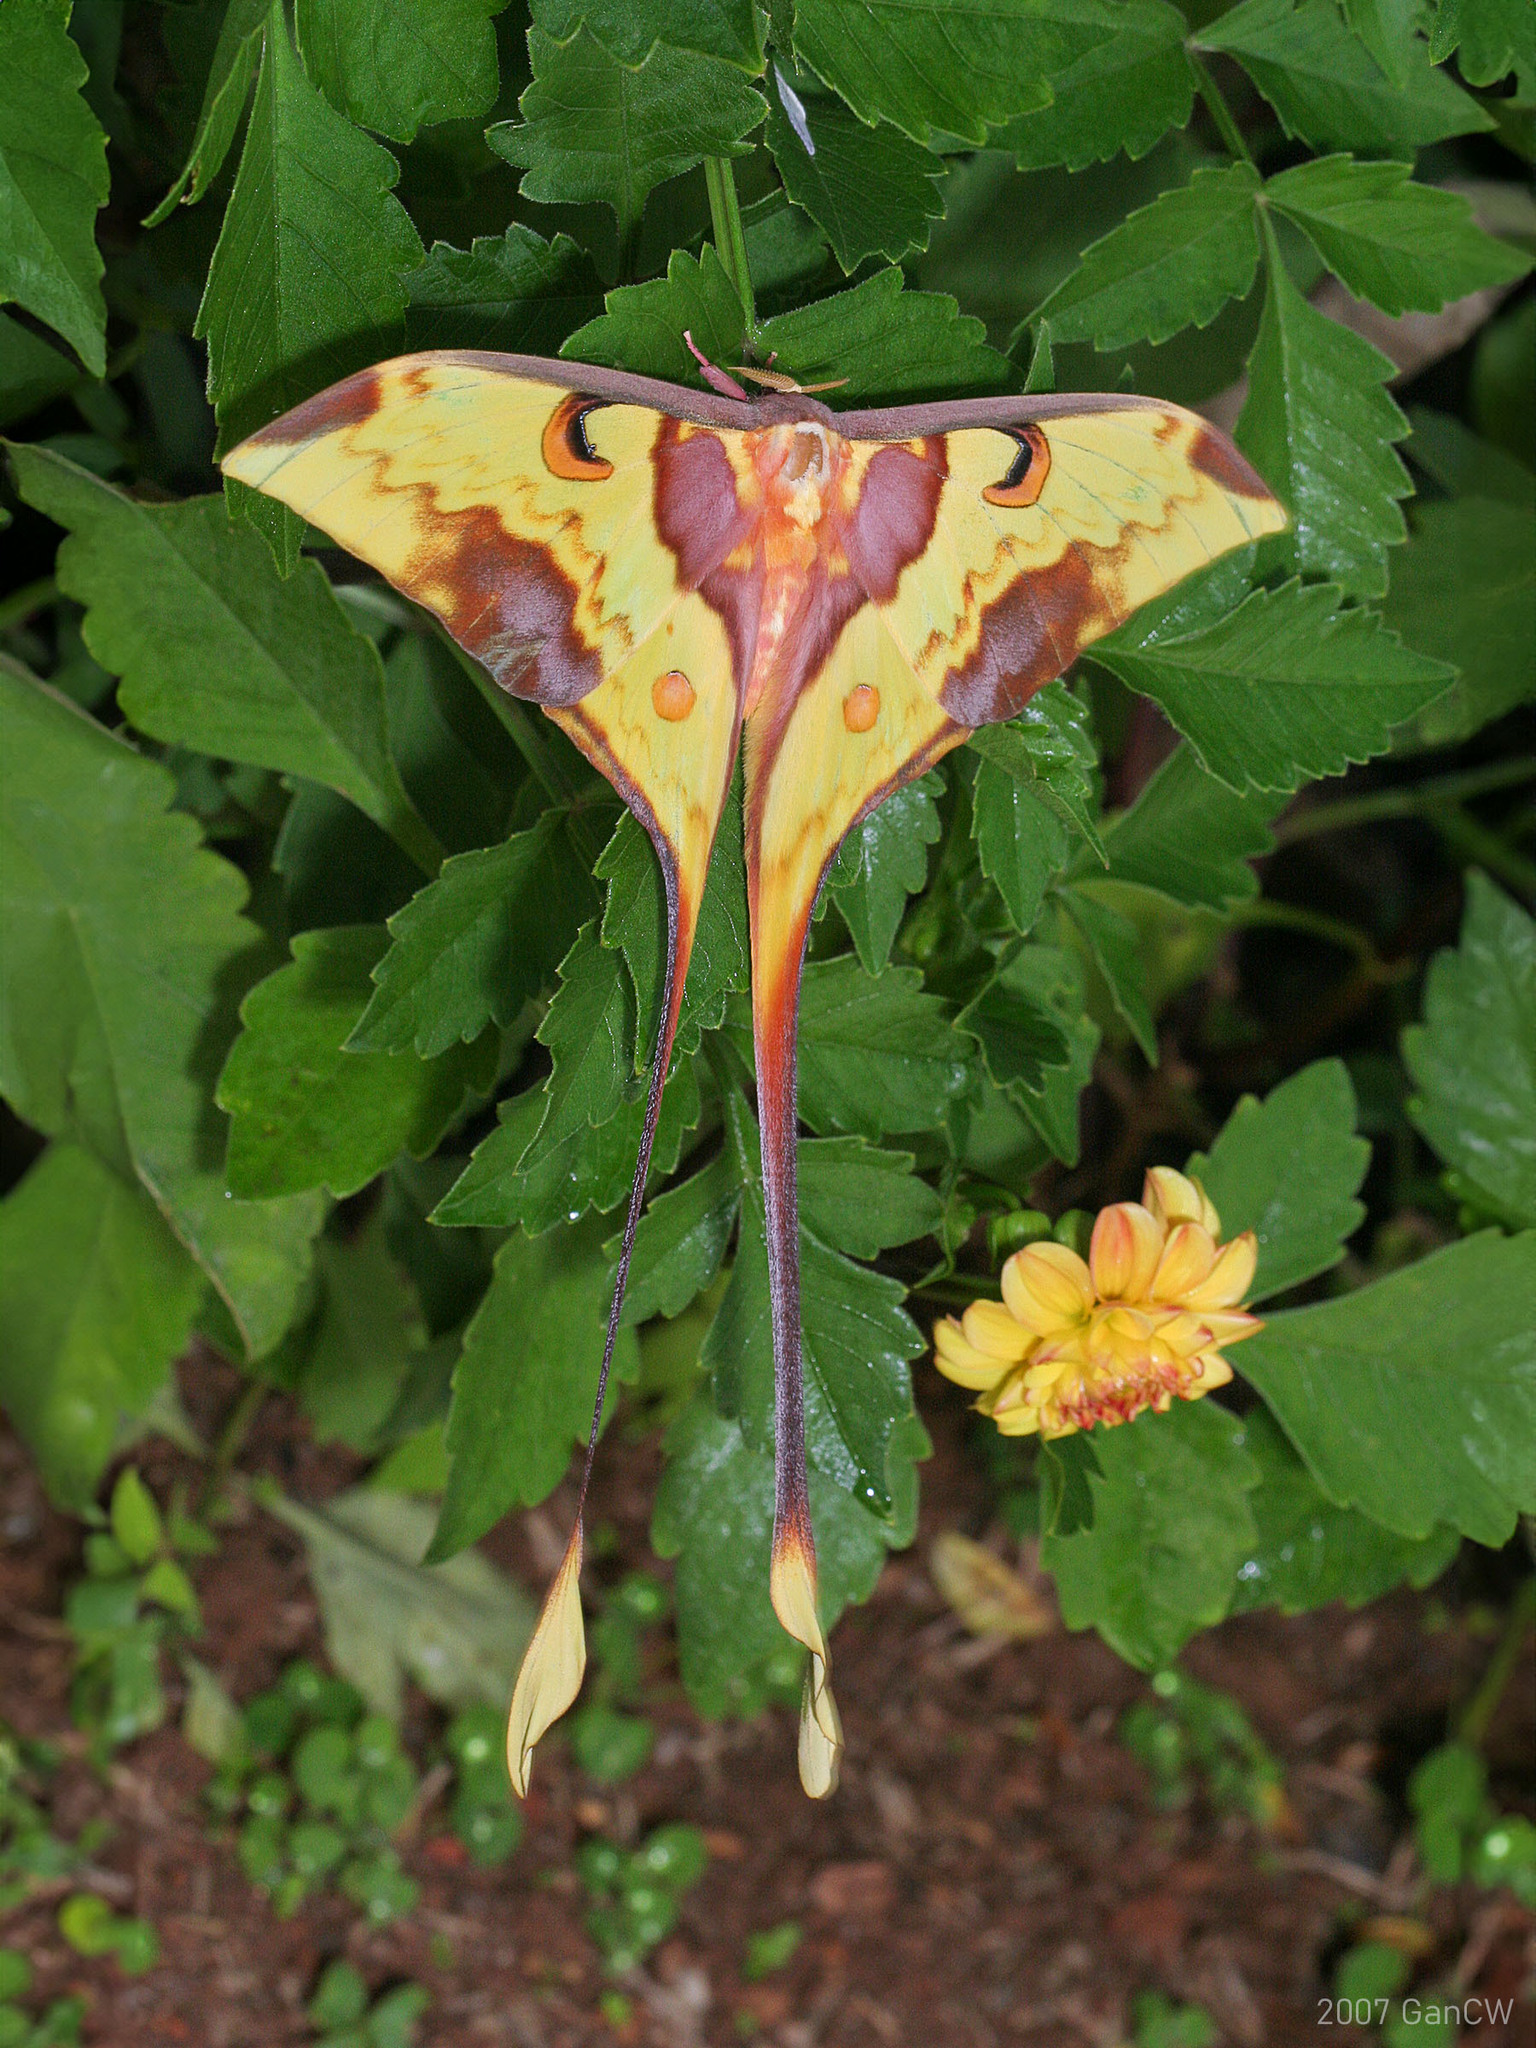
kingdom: Animalia
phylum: Arthropoda
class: Insecta
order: Lepidoptera
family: Saturniidae
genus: Actias
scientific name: Actias maenas
